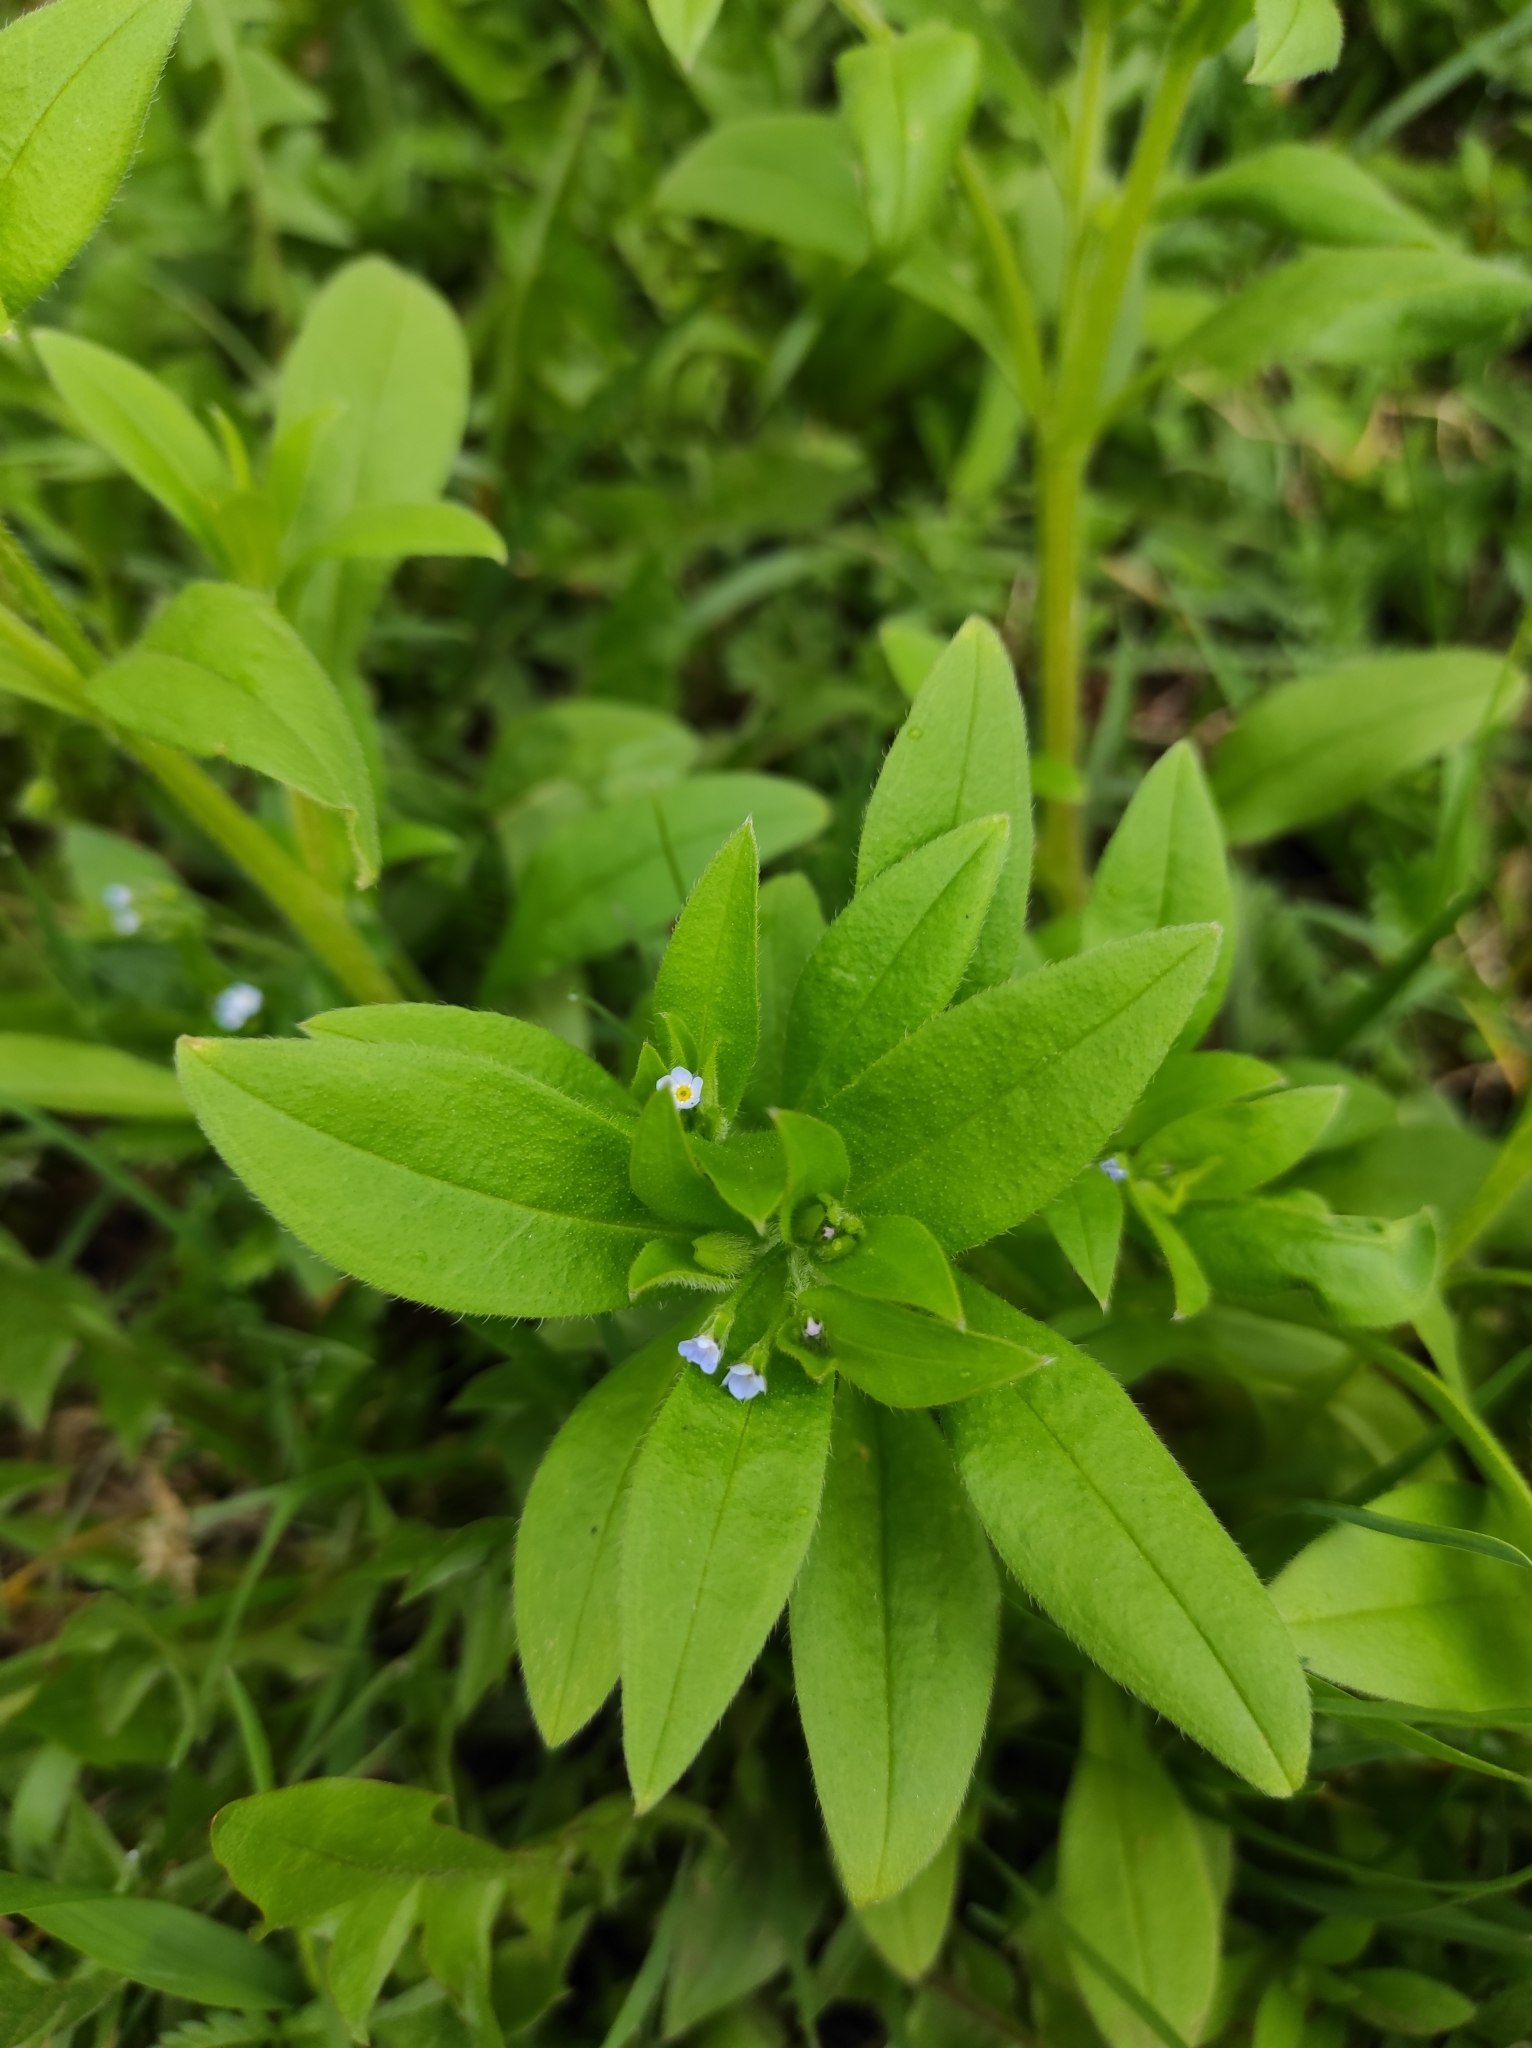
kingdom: Plantae
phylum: Tracheophyta
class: Magnoliopsida
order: Boraginales
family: Boraginaceae
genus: Myosotis
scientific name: Myosotis sparsiflora
